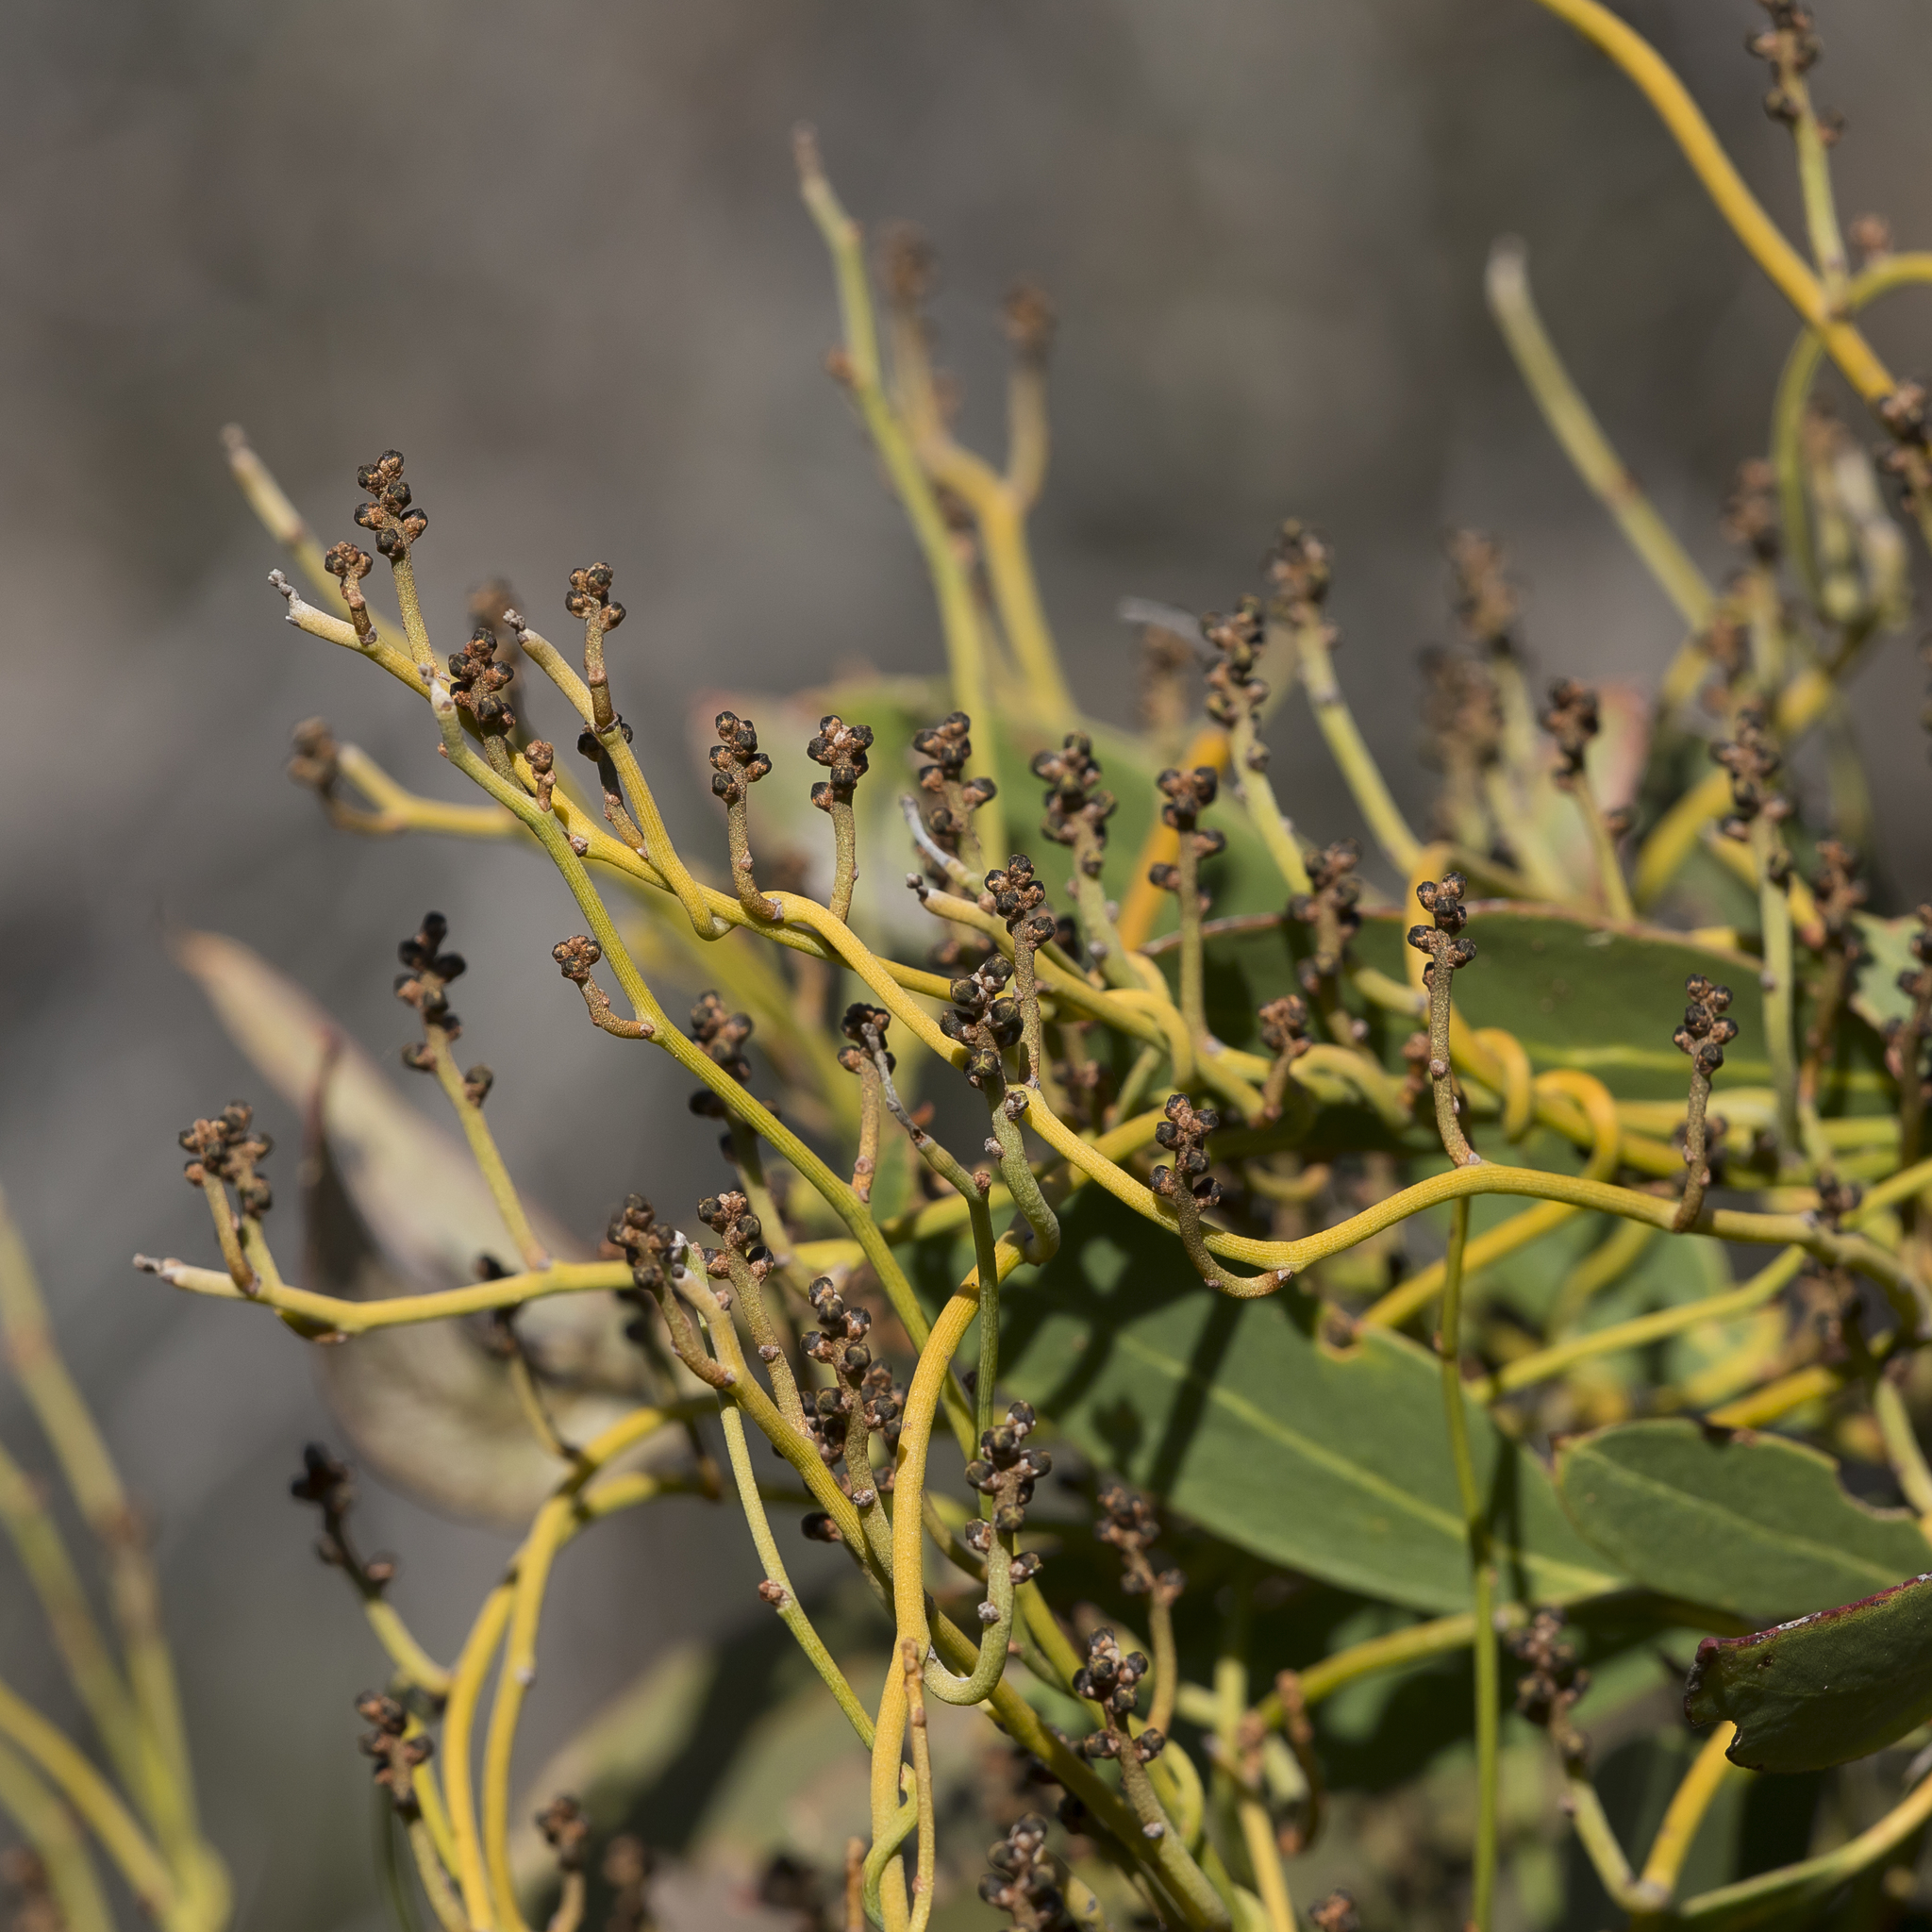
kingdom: Plantae
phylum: Tracheophyta
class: Magnoliopsida
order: Laurales
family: Lauraceae
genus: Cassytha
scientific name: Cassytha melantha
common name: Mallee stranglevine
